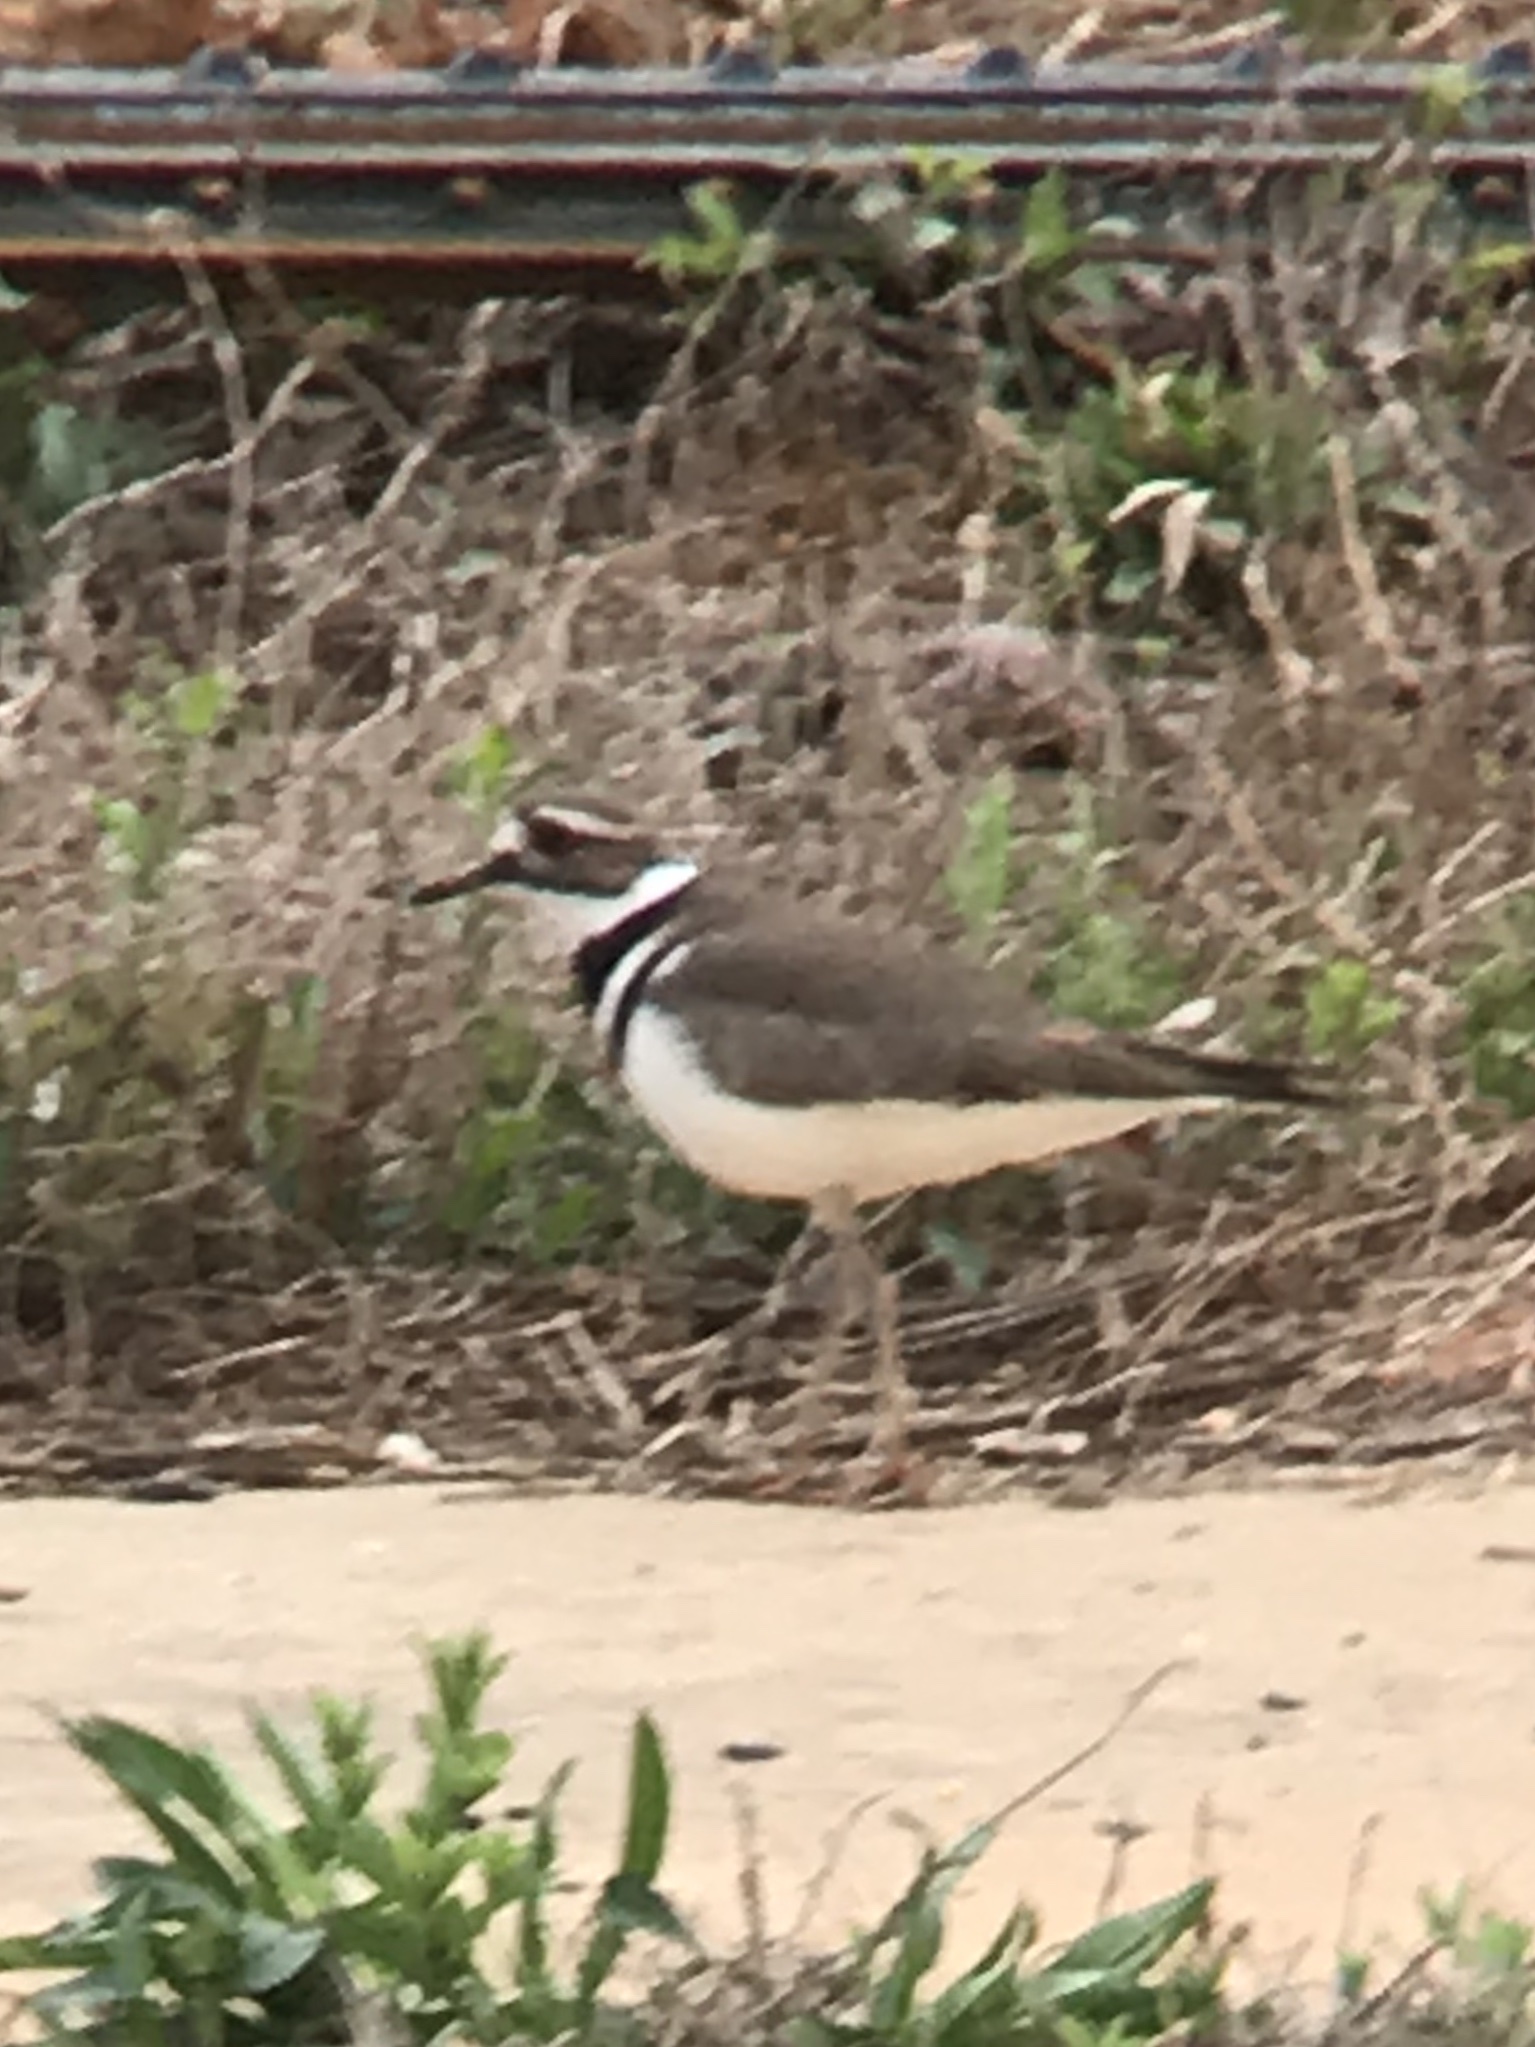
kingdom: Animalia
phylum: Chordata
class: Aves
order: Charadriiformes
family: Charadriidae
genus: Charadrius
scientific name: Charadrius vociferus
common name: Killdeer
